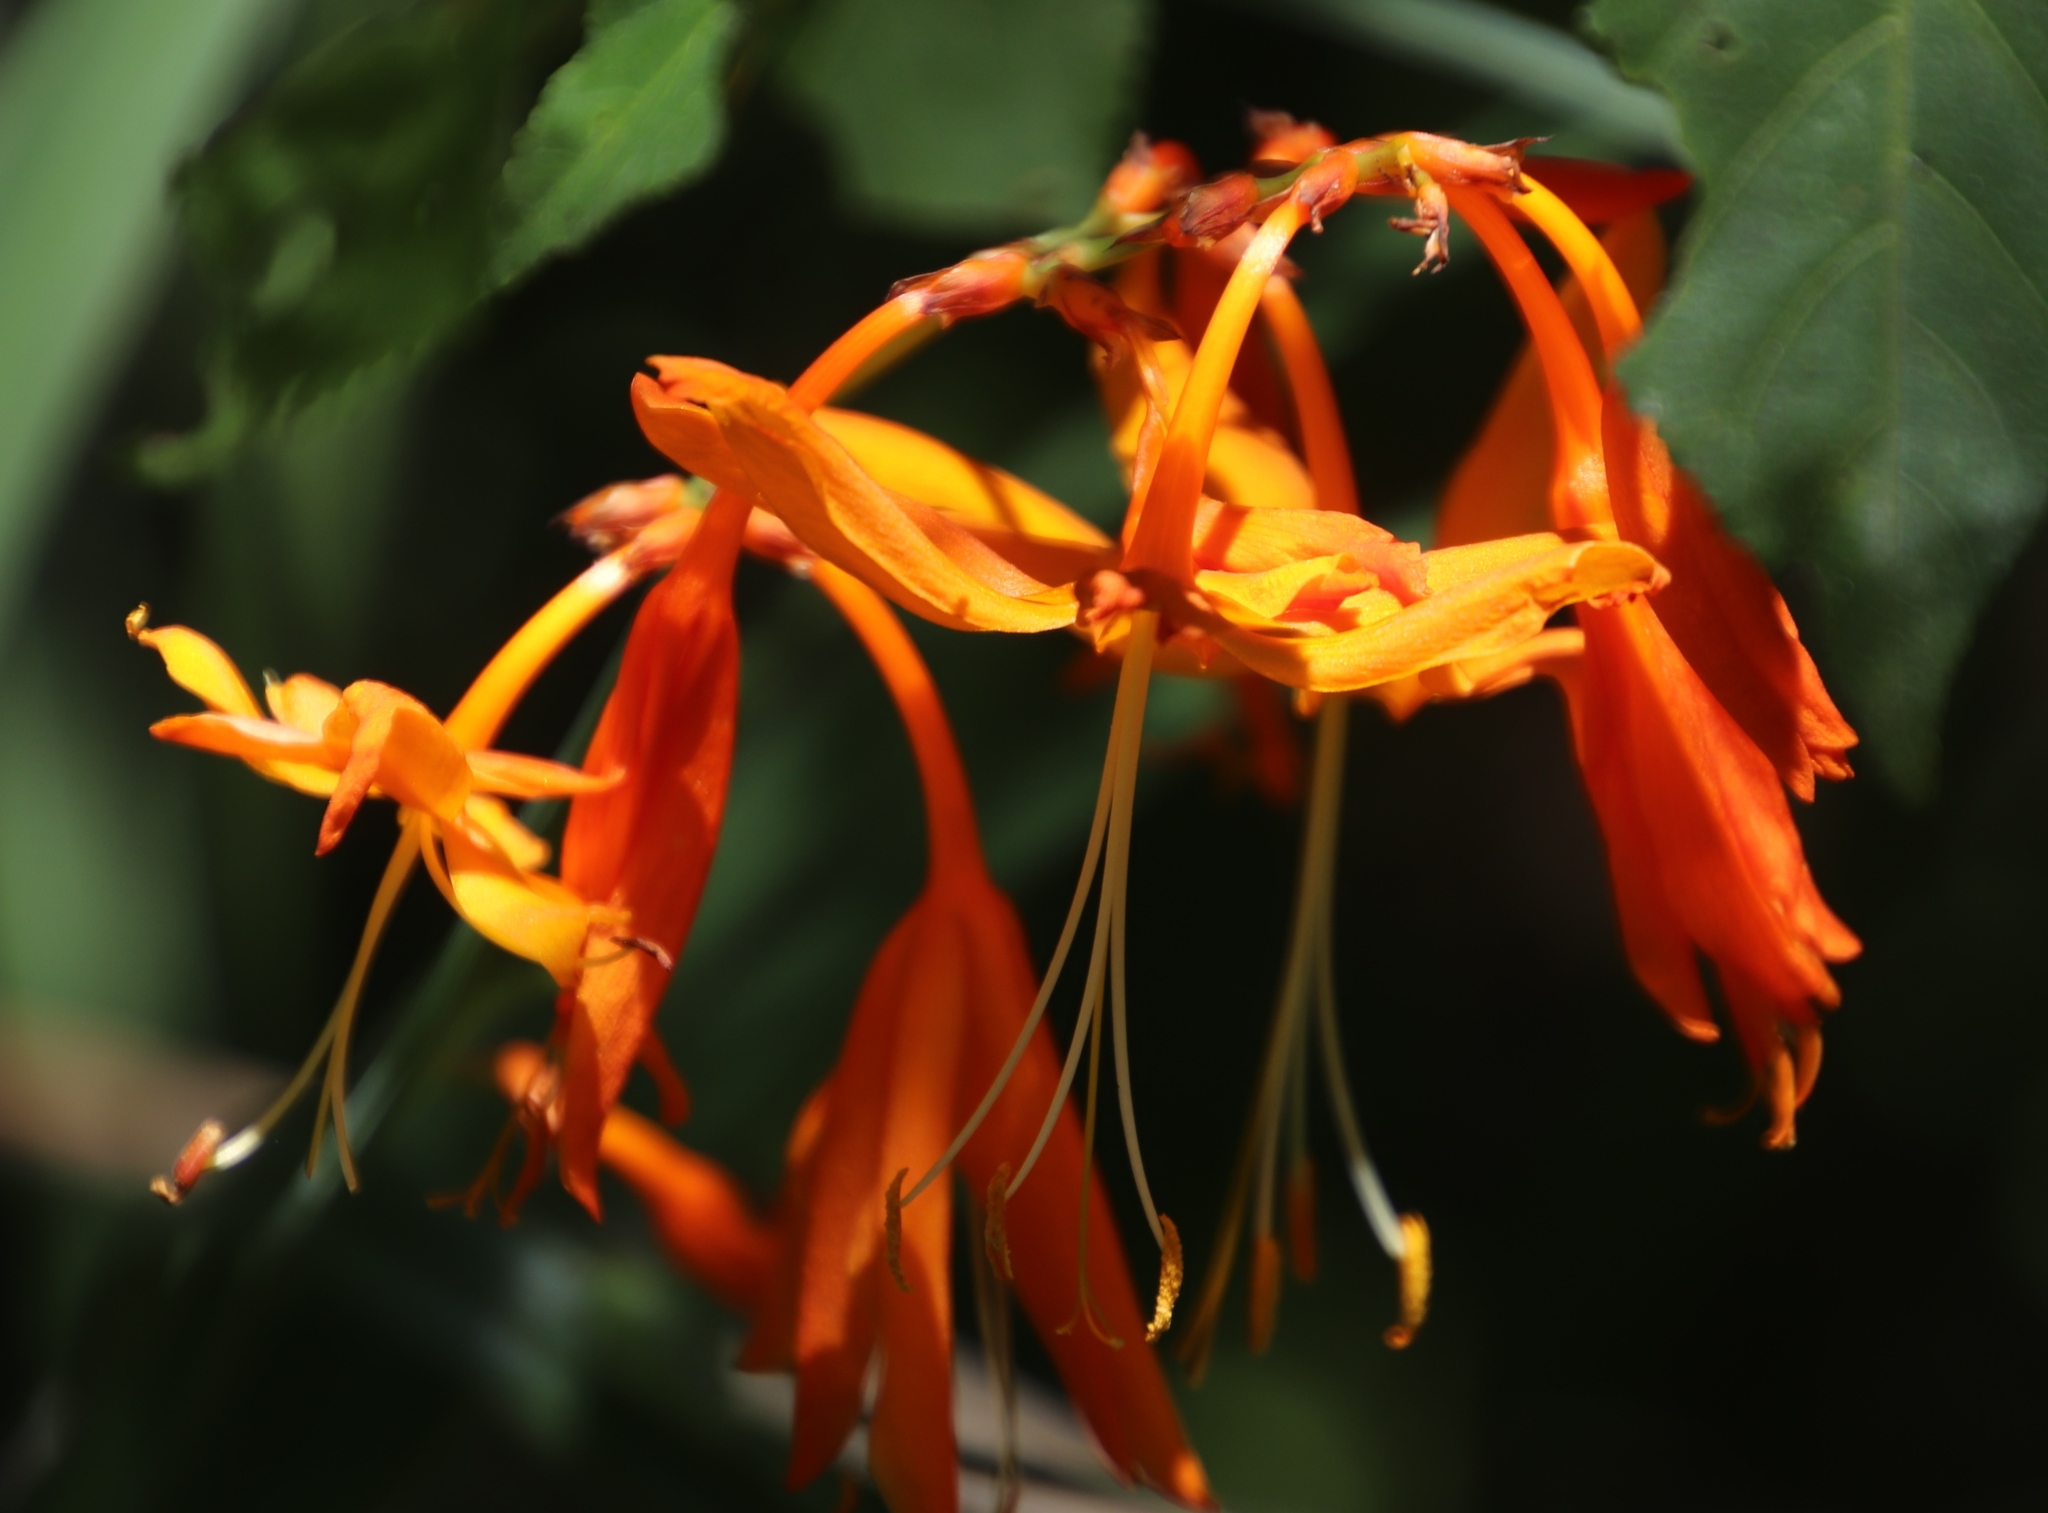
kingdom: Plantae
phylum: Tracheophyta
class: Liliopsida
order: Asparagales
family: Iridaceae
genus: Crocosmia
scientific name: Crocosmia aurea
